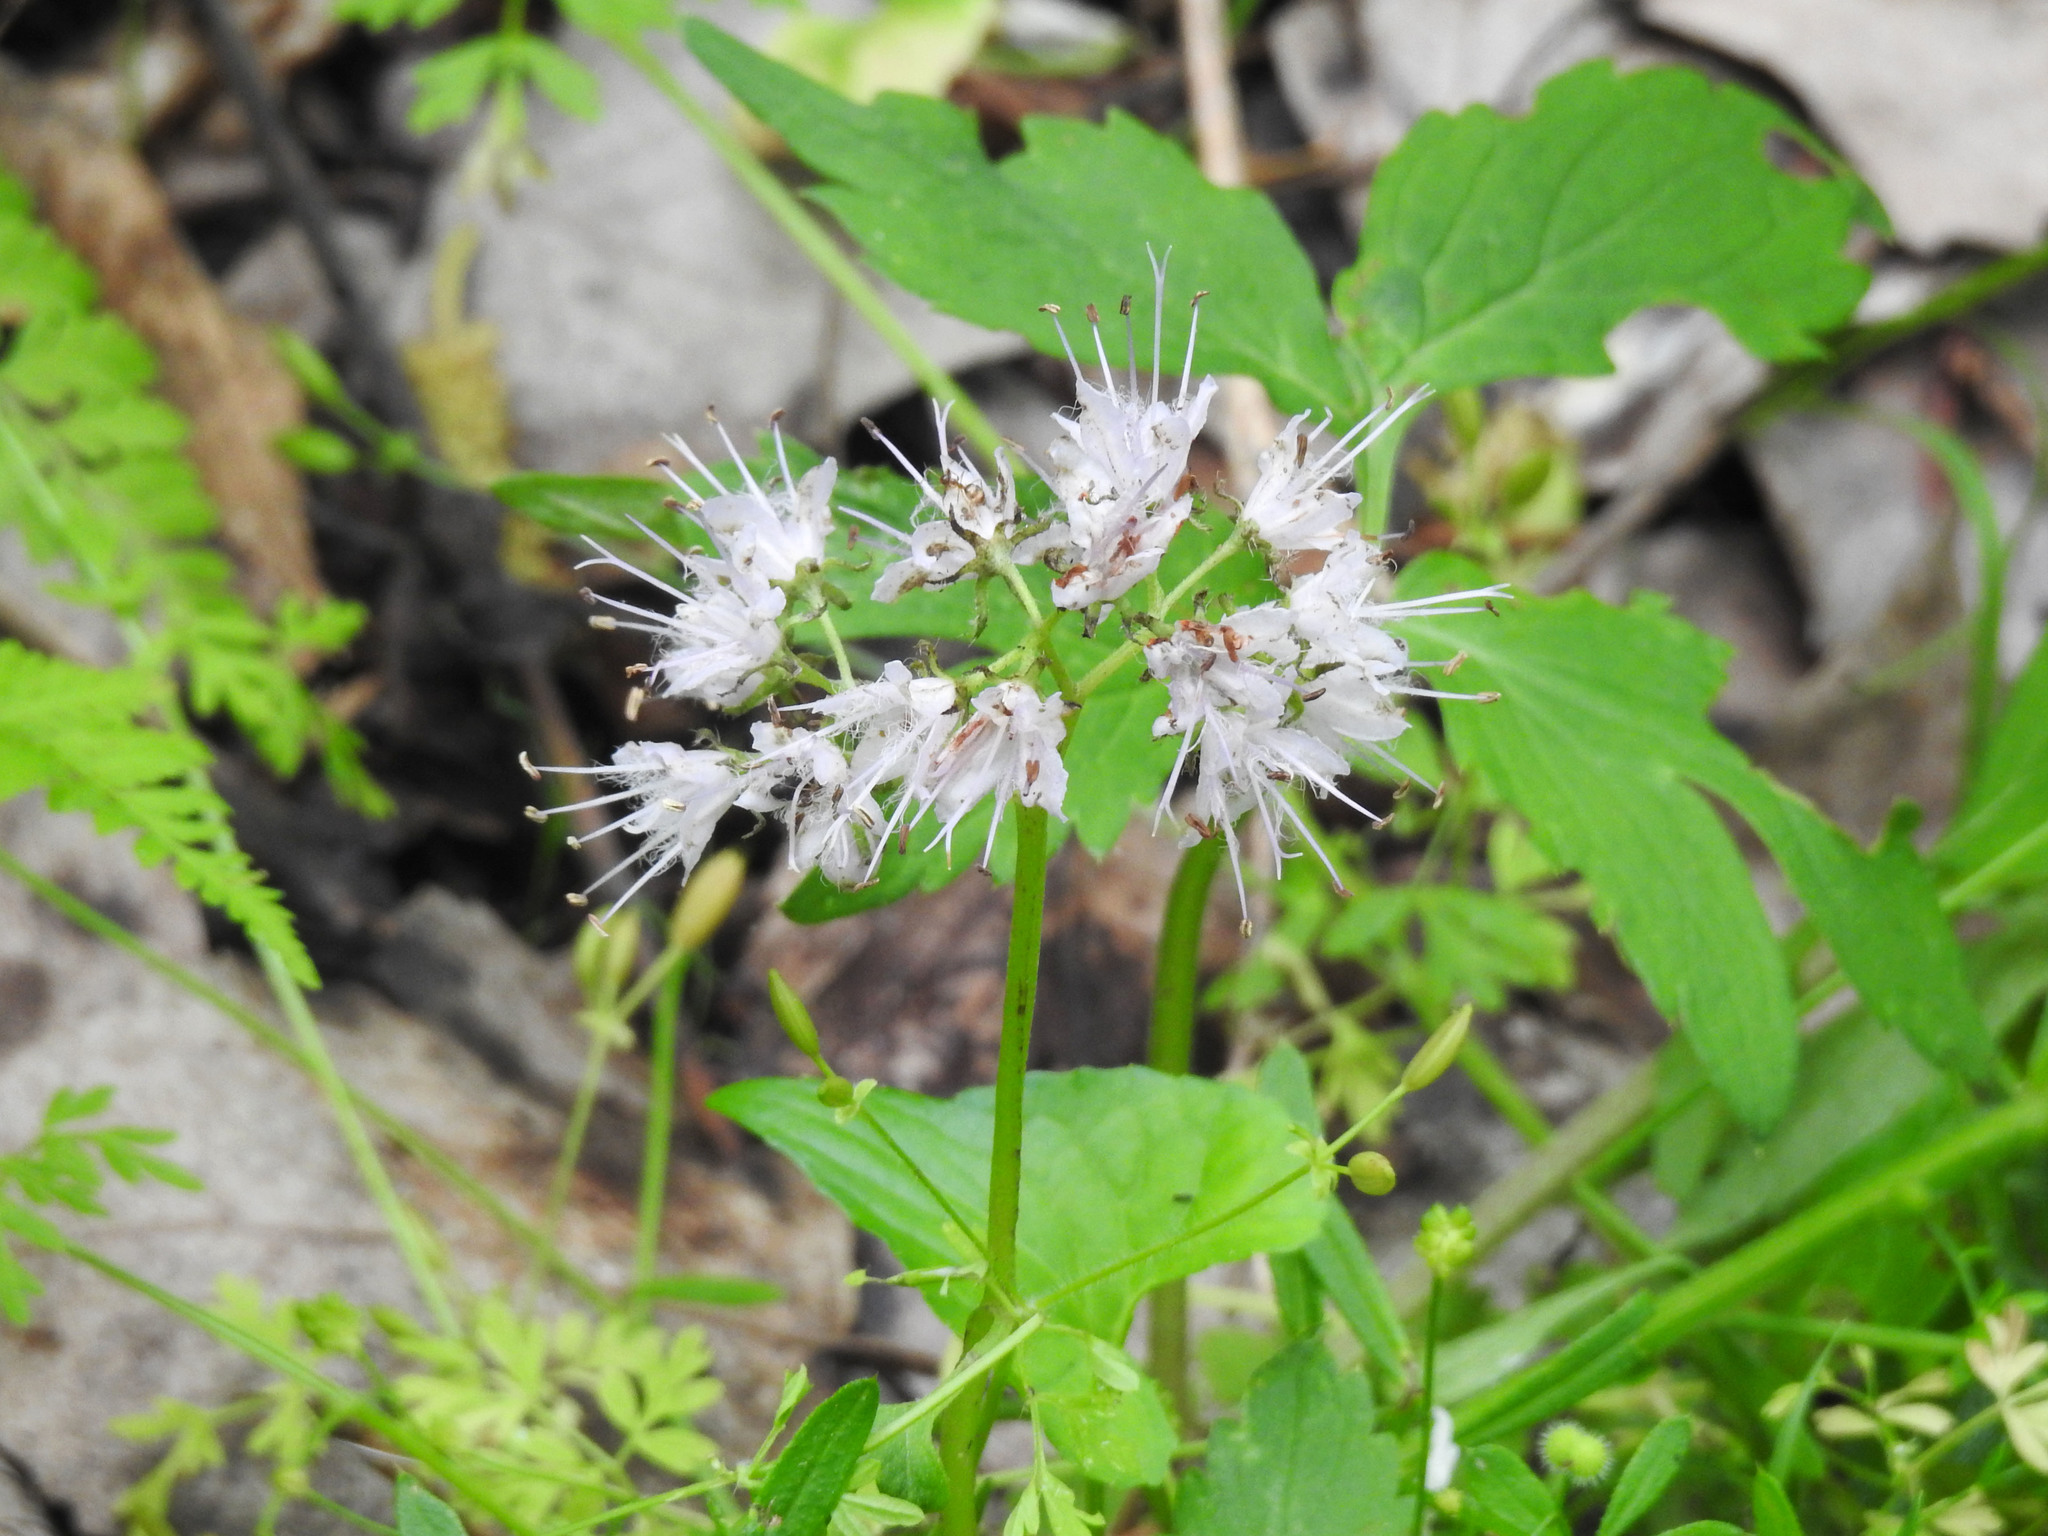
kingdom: Plantae
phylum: Tracheophyta
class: Magnoliopsida
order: Boraginales
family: Hydrophyllaceae
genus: Hydrophyllum
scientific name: Hydrophyllum virginianum
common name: Virginia waterleaf
